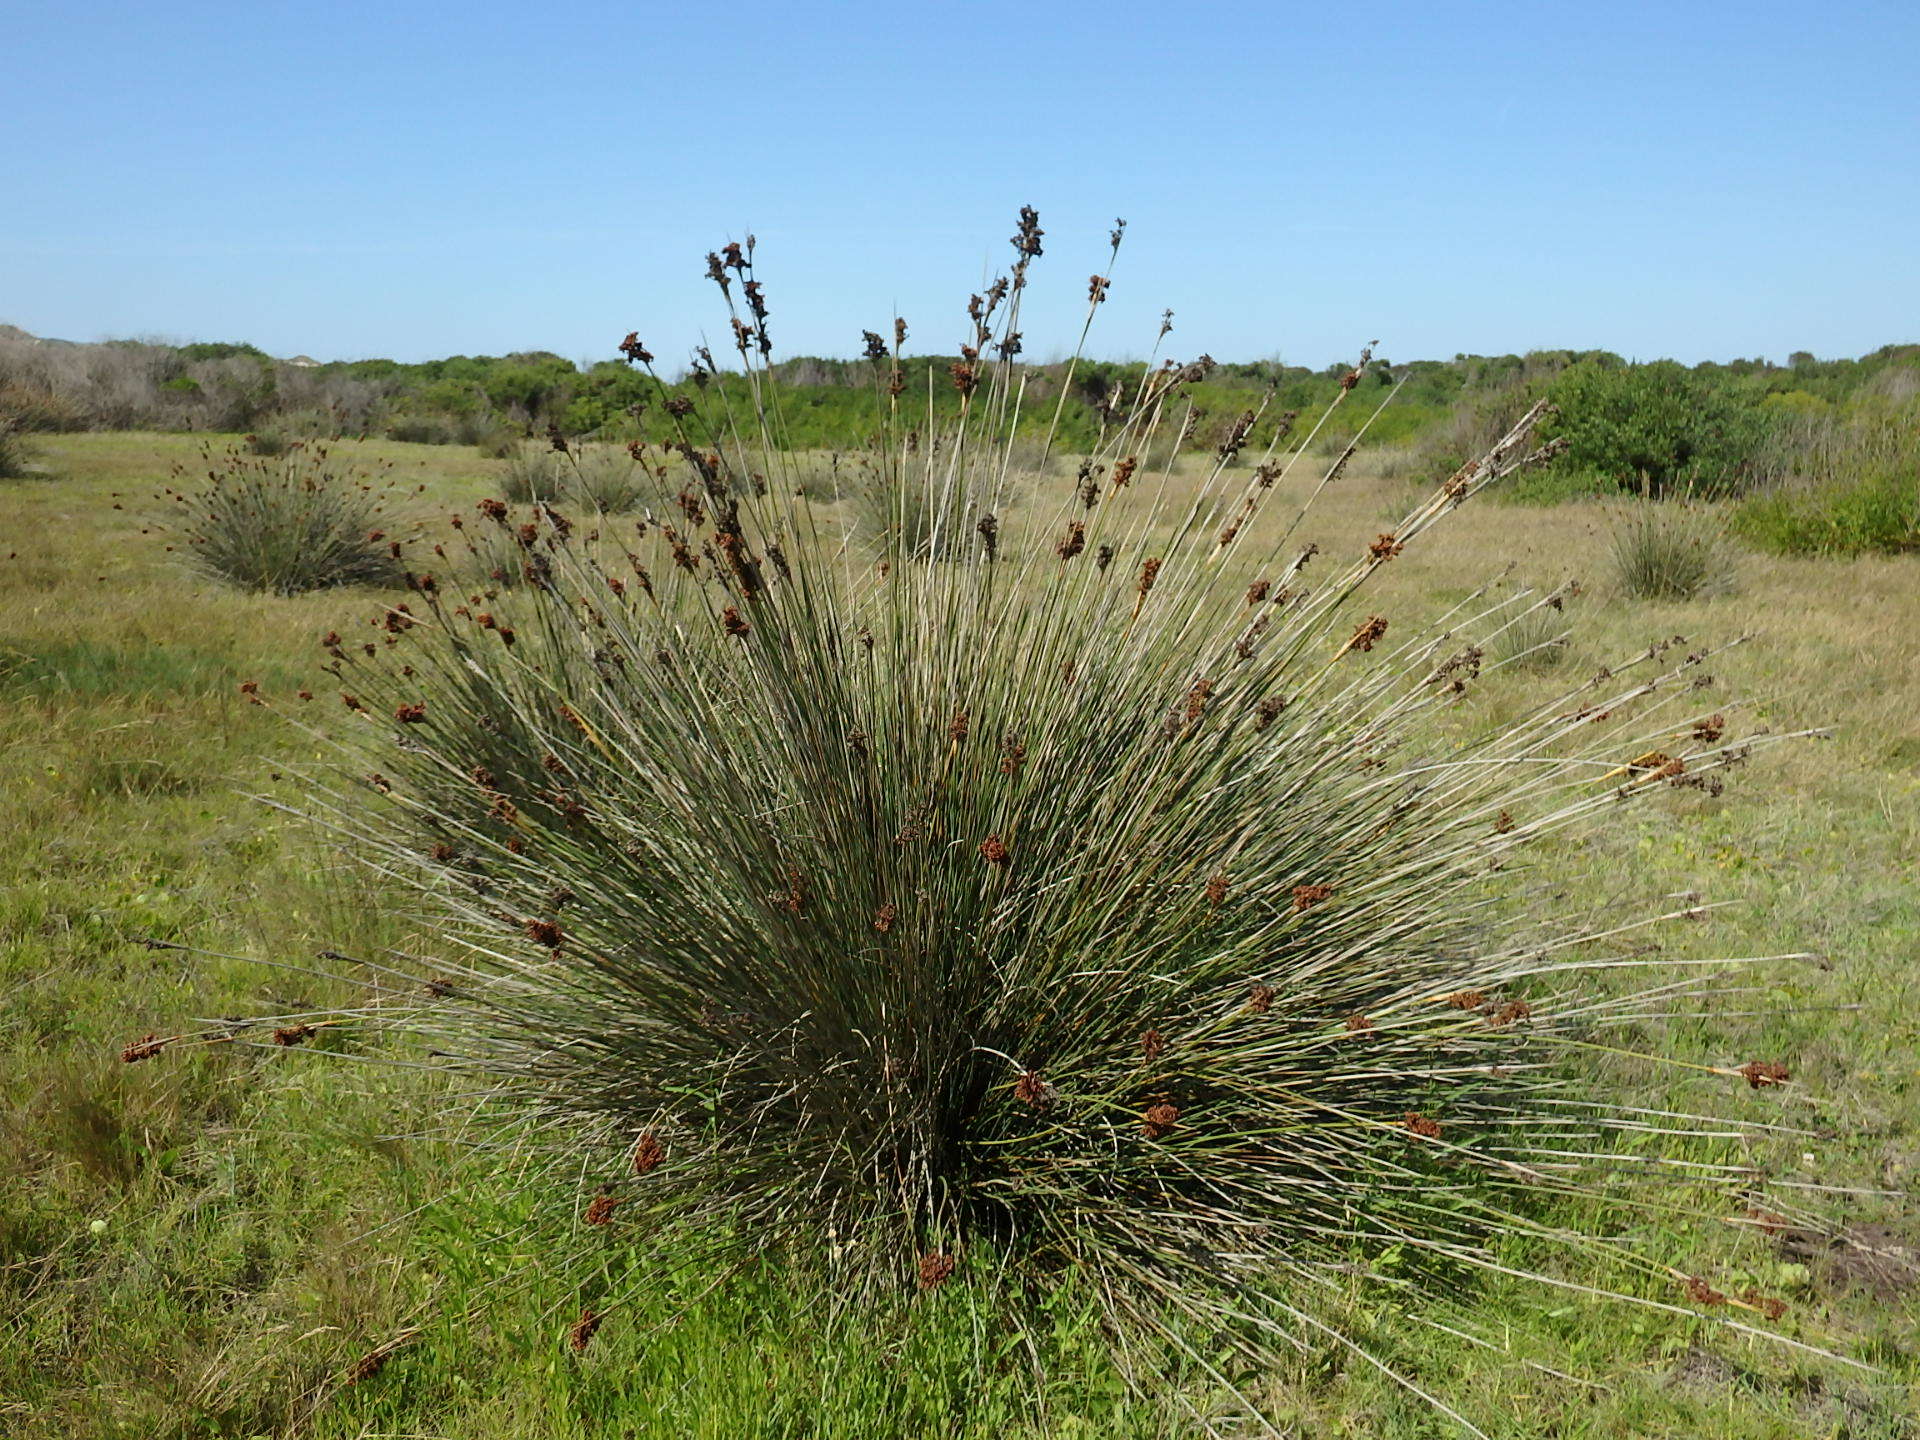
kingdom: Plantae
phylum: Tracheophyta
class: Liliopsida
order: Poales
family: Juncaceae
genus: Juncus
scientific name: Juncus acutus
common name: Sharp rush
